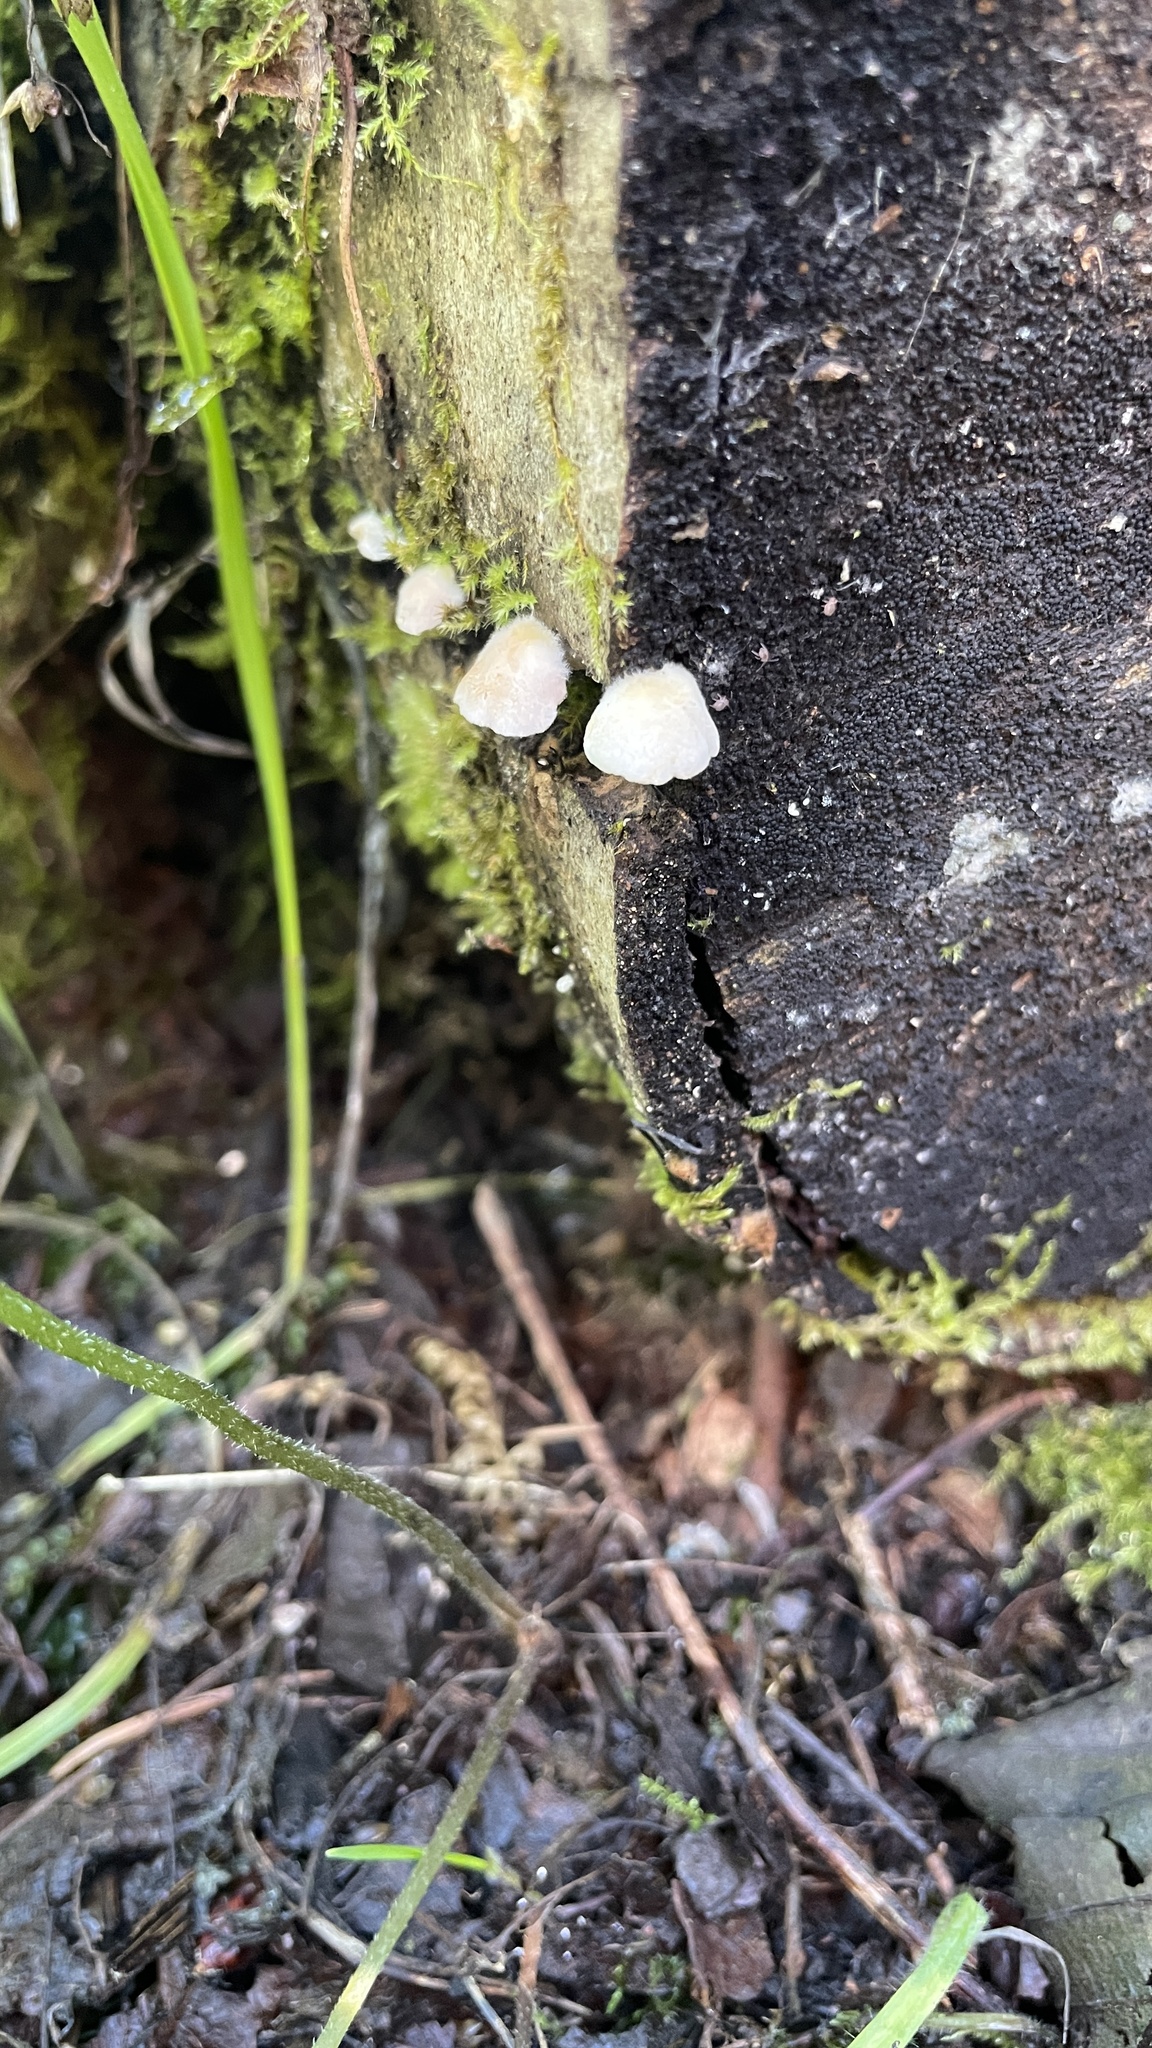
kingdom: Fungi
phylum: Basidiomycota
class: Agaricomycetes
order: Agaricales
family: Crepidotaceae
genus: Crepidotus
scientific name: Crepidotus subverrucisporus
